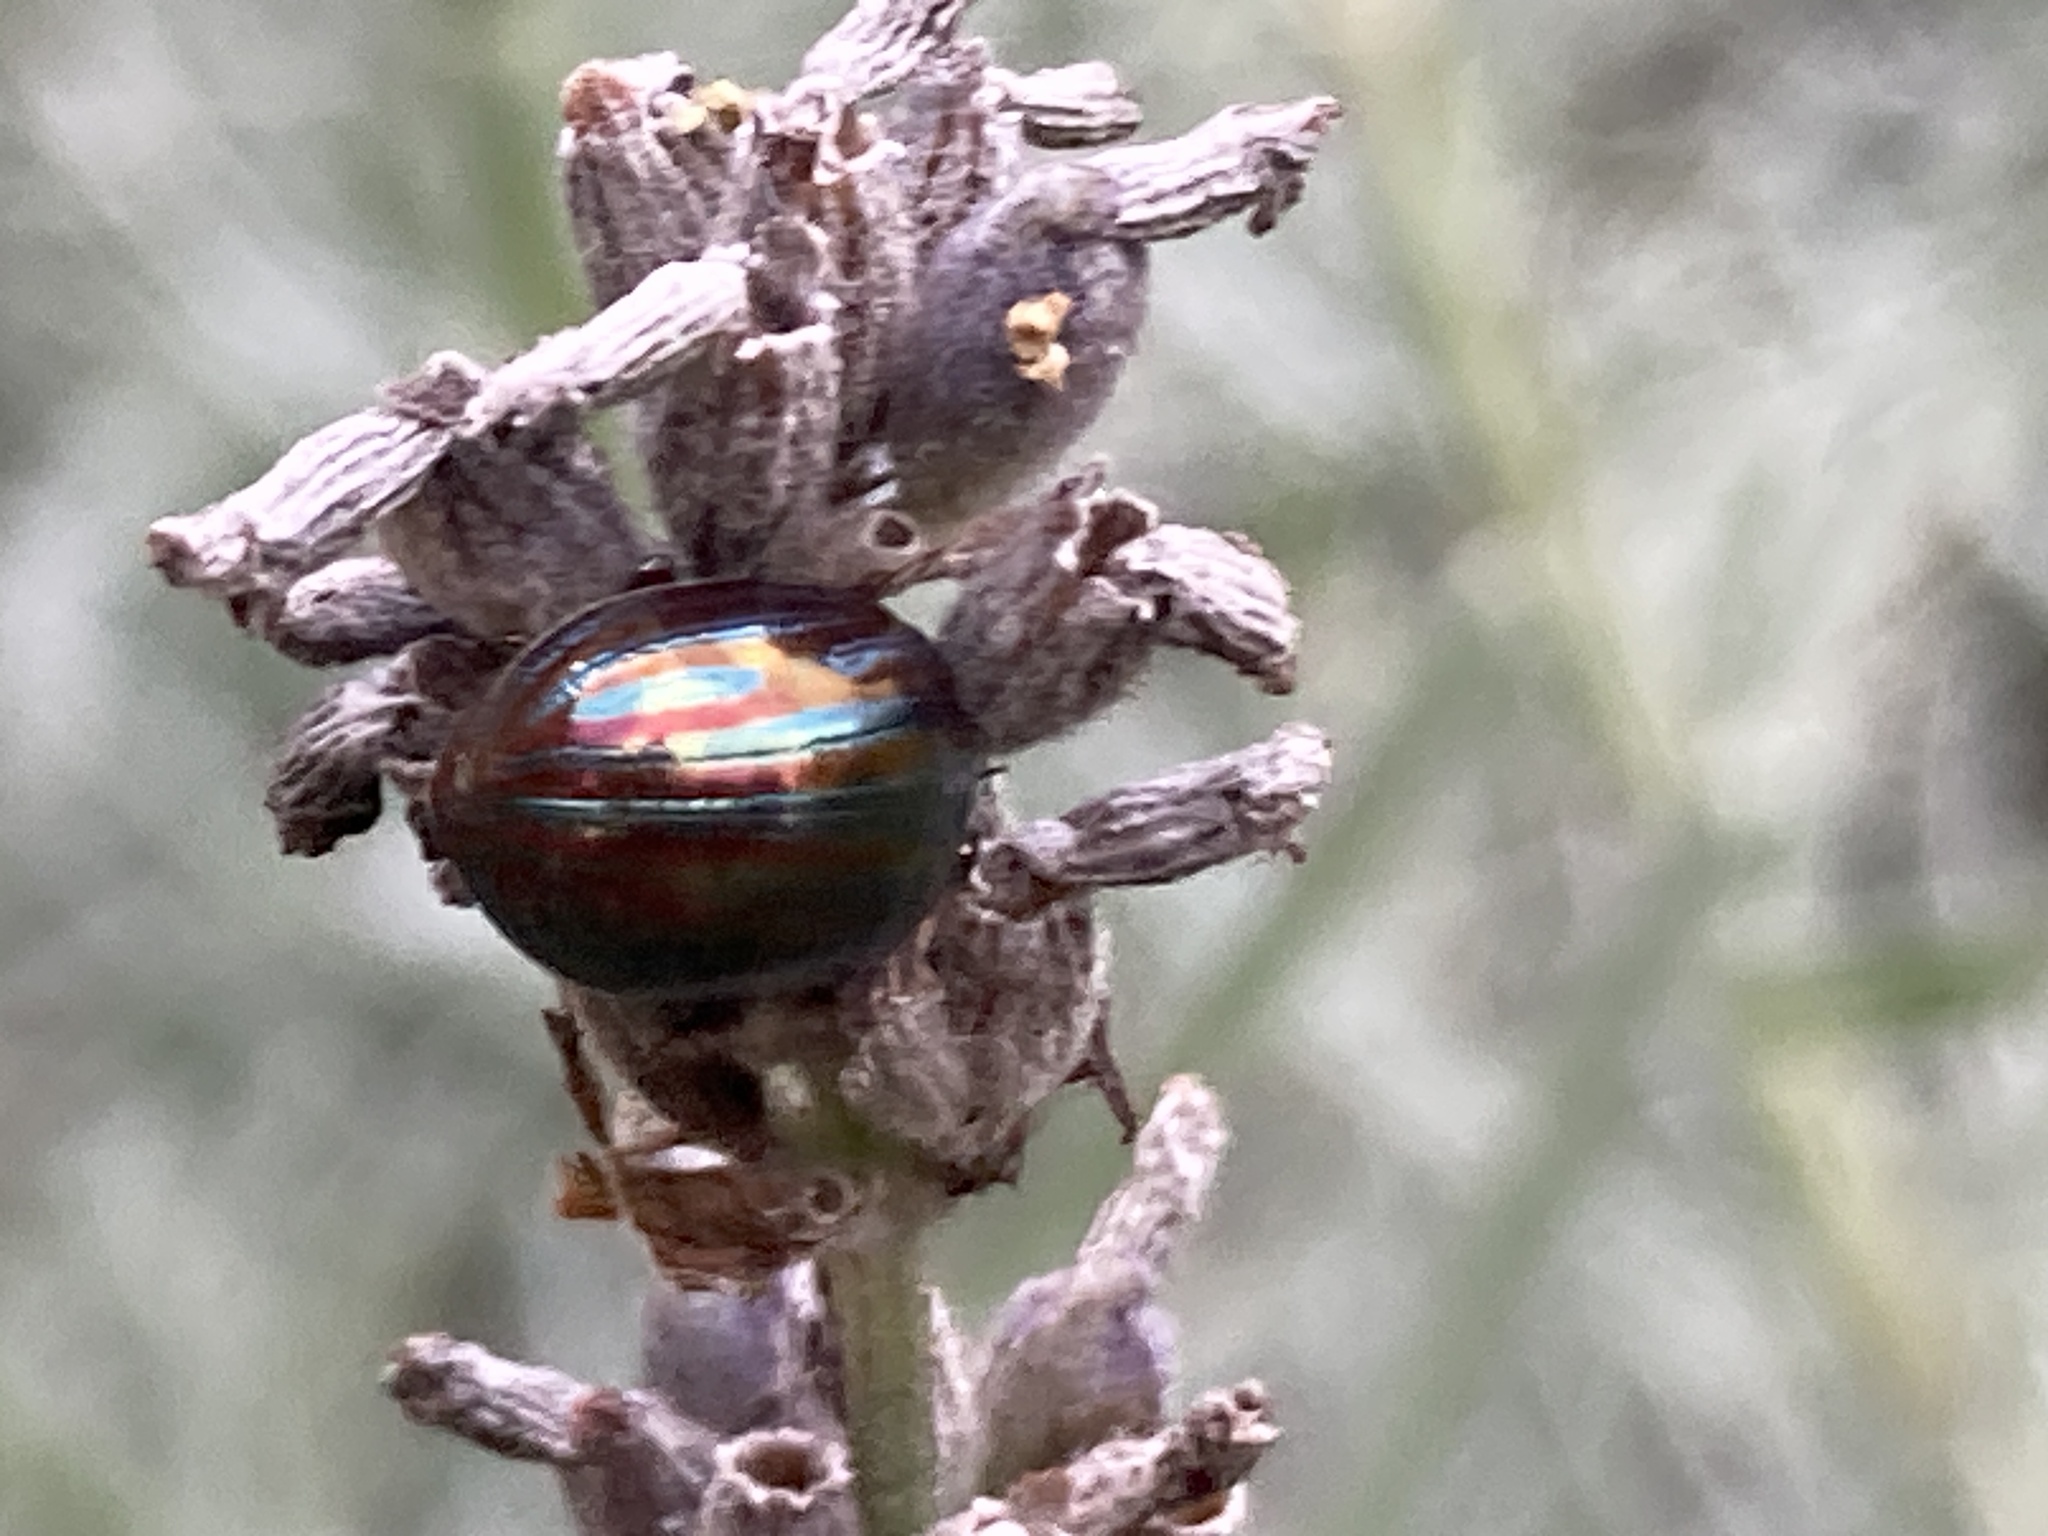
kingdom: Animalia
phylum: Arthropoda
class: Insecta
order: Coleoptera
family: Chrysomelidae
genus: Chrysolina
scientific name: Chrysolina americana
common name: Rosemary beetle
